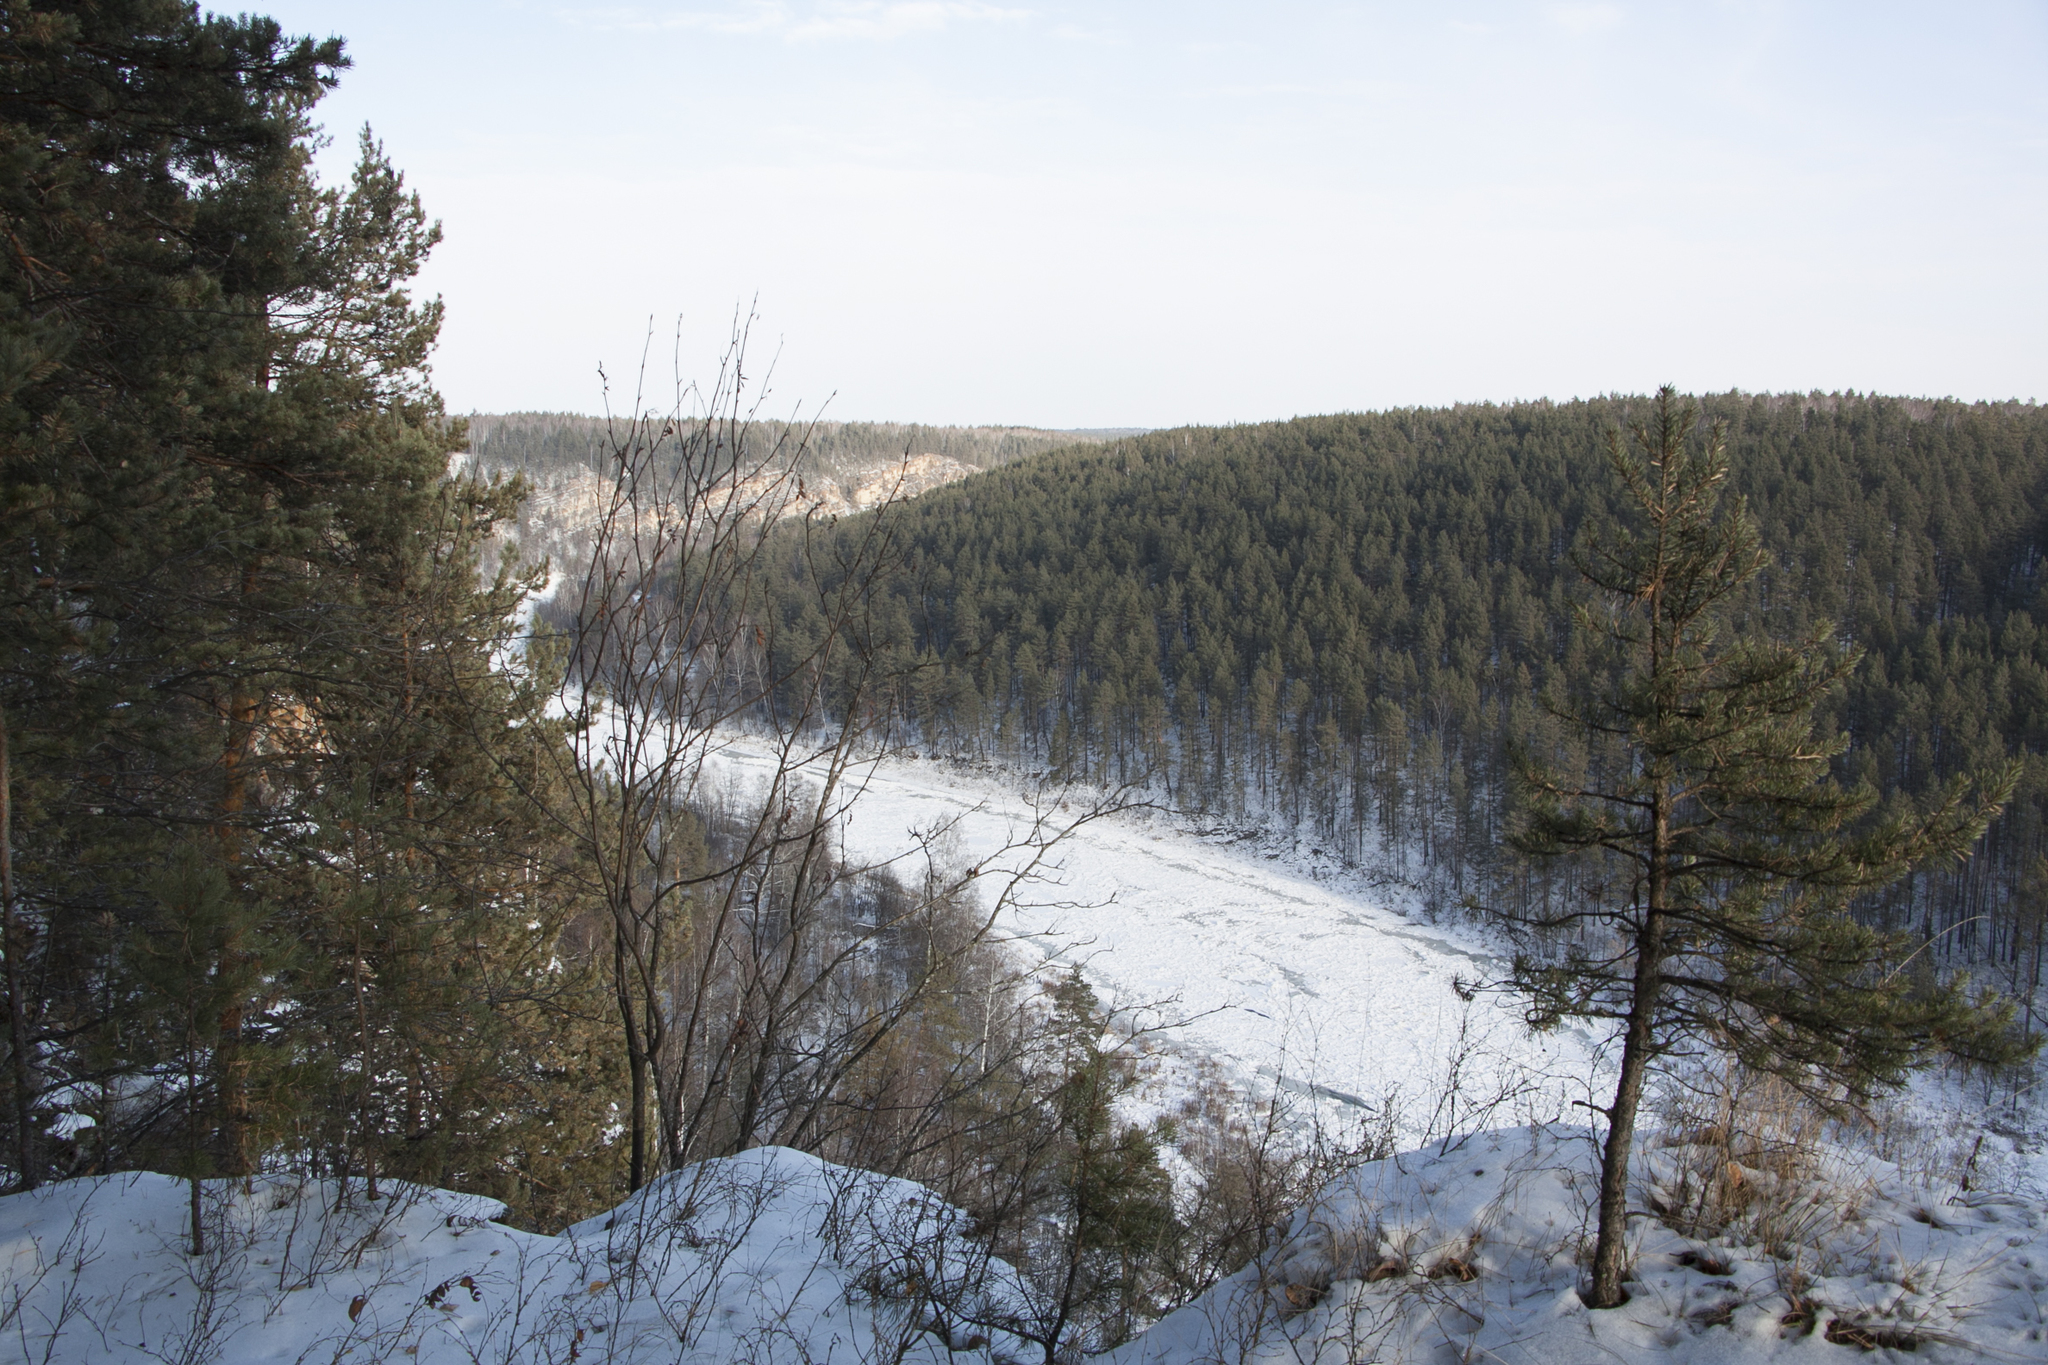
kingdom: Plantae
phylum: Tracheophyta
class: Pinopsida
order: Pinales
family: Pinaceae
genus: Pinus
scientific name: Pinus sylvestris
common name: Scots pine
